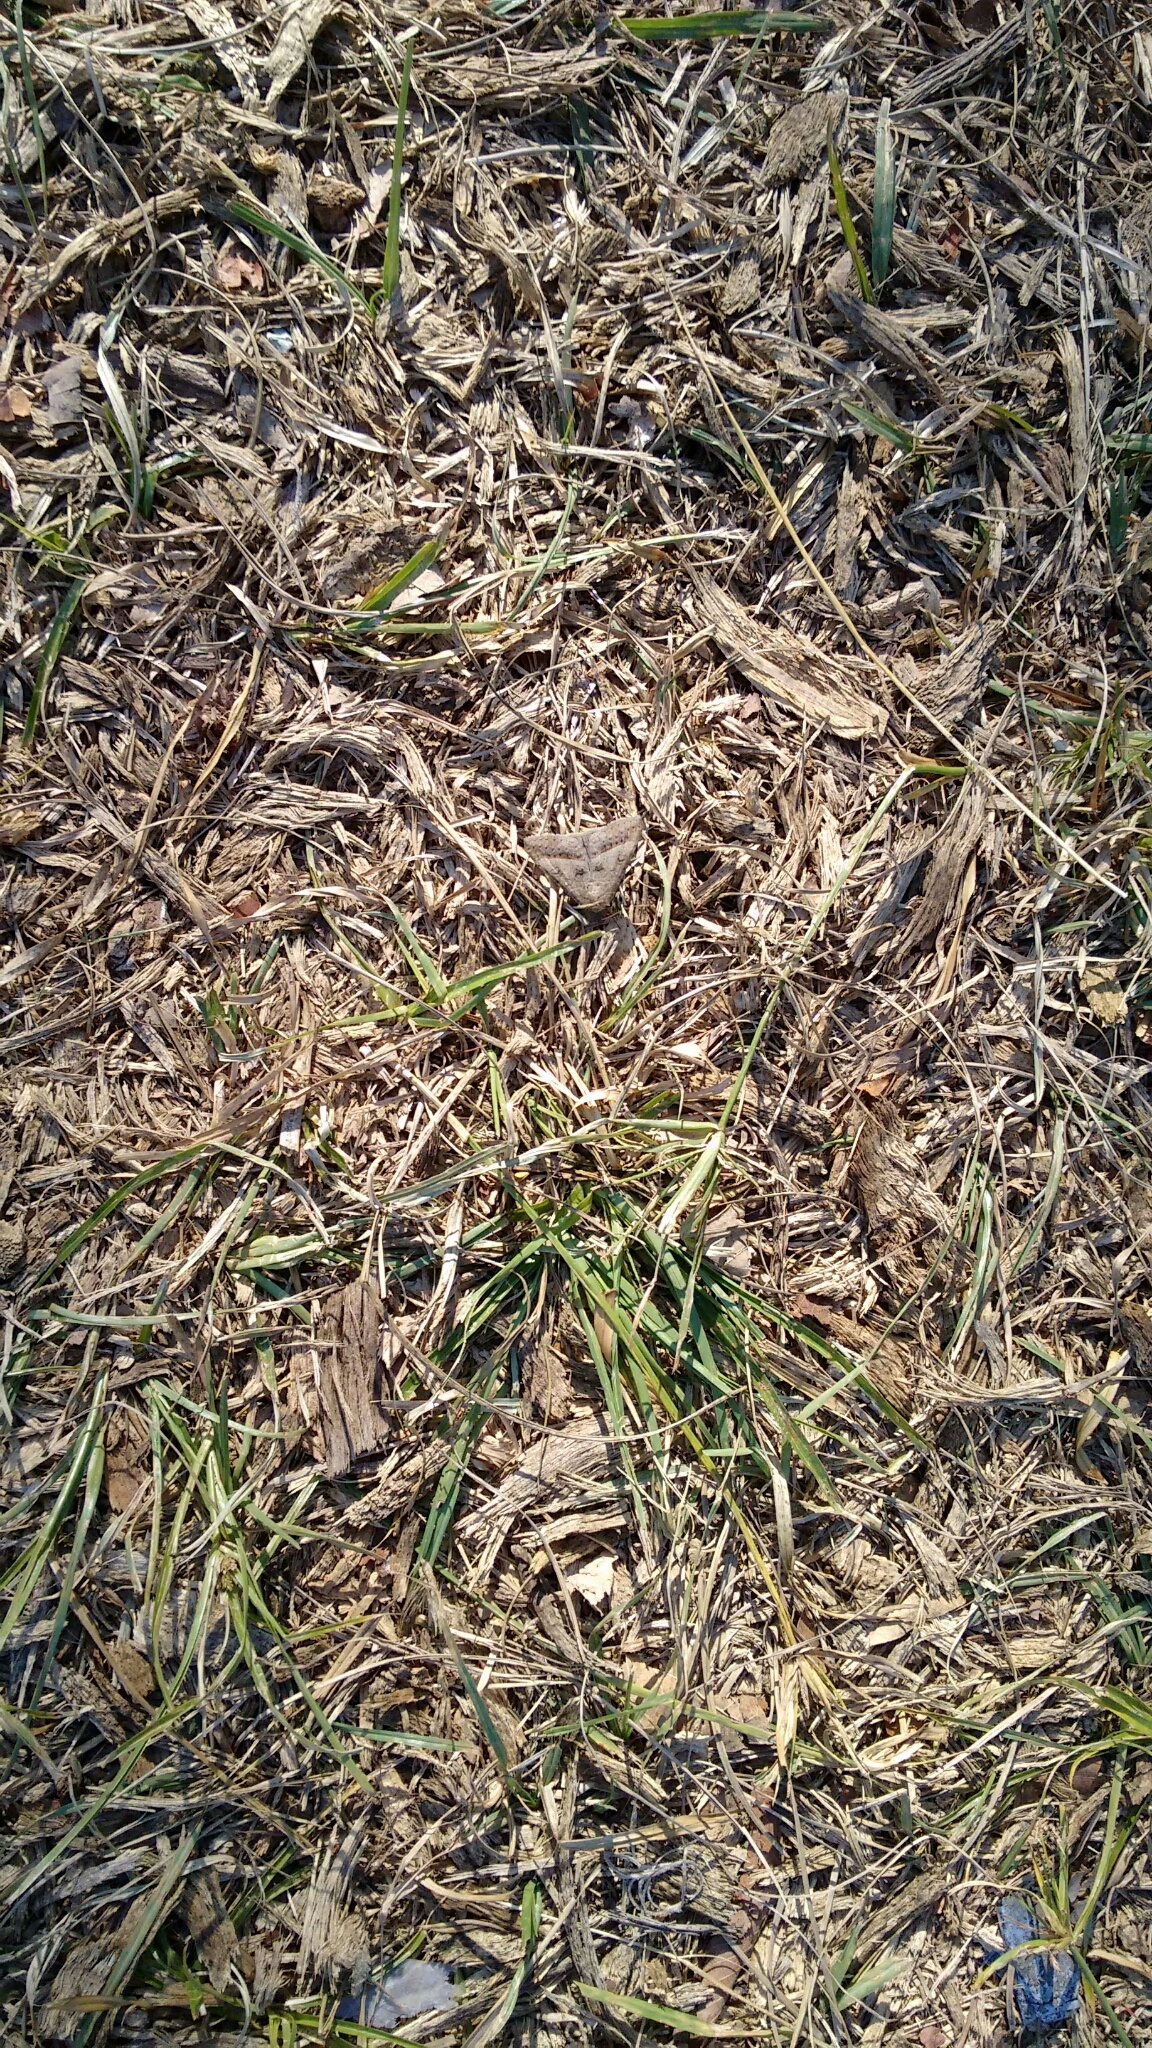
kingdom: Animalia
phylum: Arthropoda
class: Insecta
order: Lepidoptera
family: Erebidae
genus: Mocis
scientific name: Mocis latipes
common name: Striped grass looper
